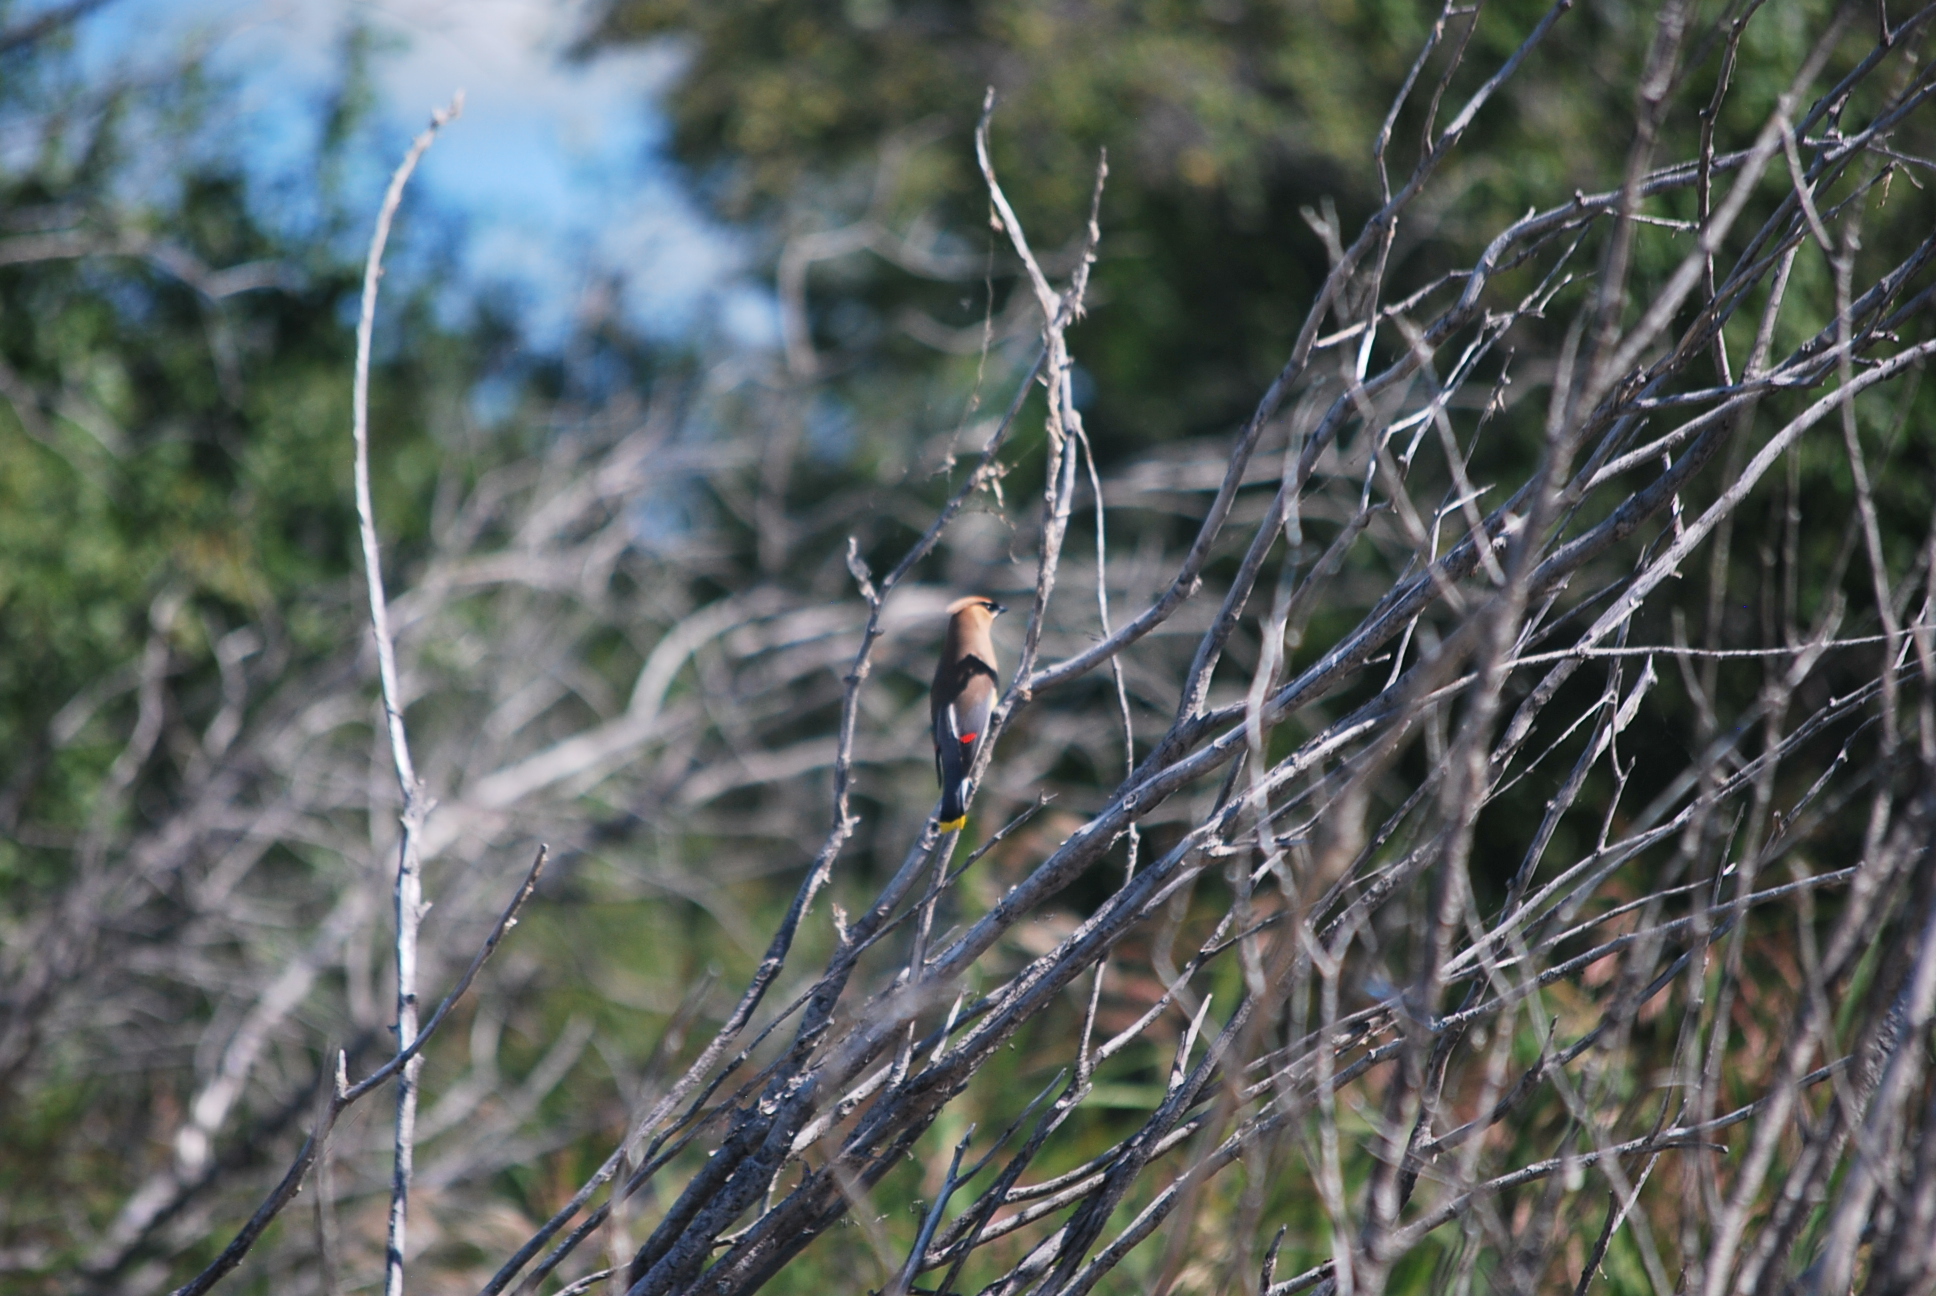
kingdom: Animalia
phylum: Chordata
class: Aves
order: Passeriformes
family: Bombycillidae
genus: Bombycilla
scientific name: Bombycilla cedrorum
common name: Cedar waxwing
